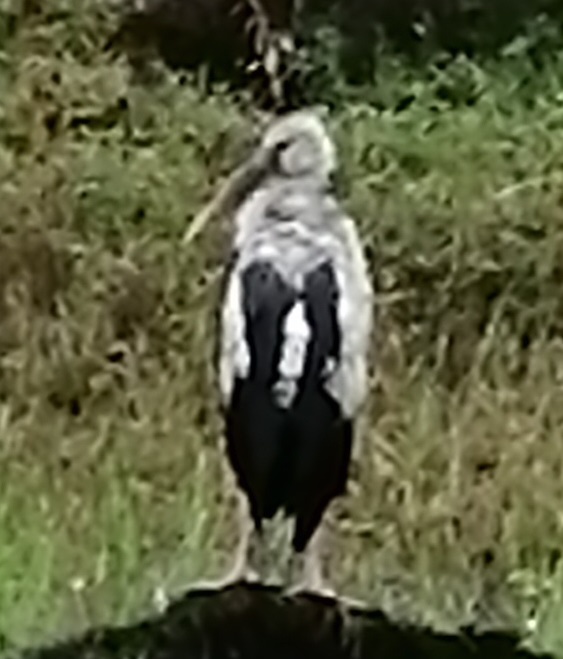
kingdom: Animalia
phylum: Chordata
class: Aves
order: Ciconiiformes
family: Ciconiidae
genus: Anastomus
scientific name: Anastomus oscitans
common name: Asian openbill
